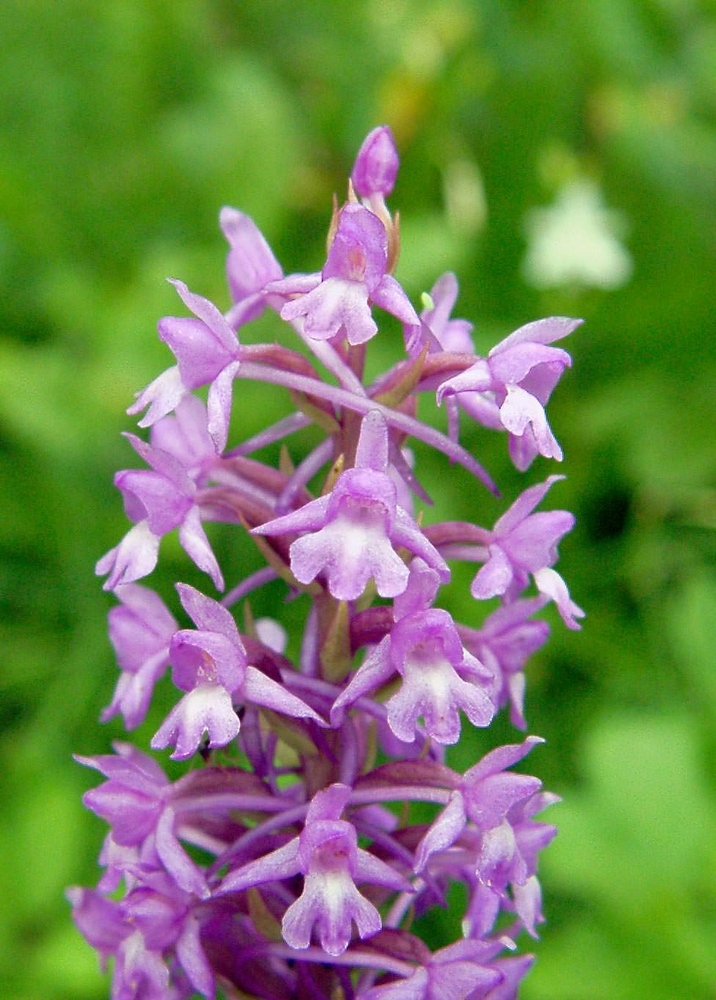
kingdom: Plantae
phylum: Tracheophyta
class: Liliopsida
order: Asparagales
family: Orchidaceae
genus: Gymnadenia
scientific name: Gymnadenia conopsea
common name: Fragrant orchid
